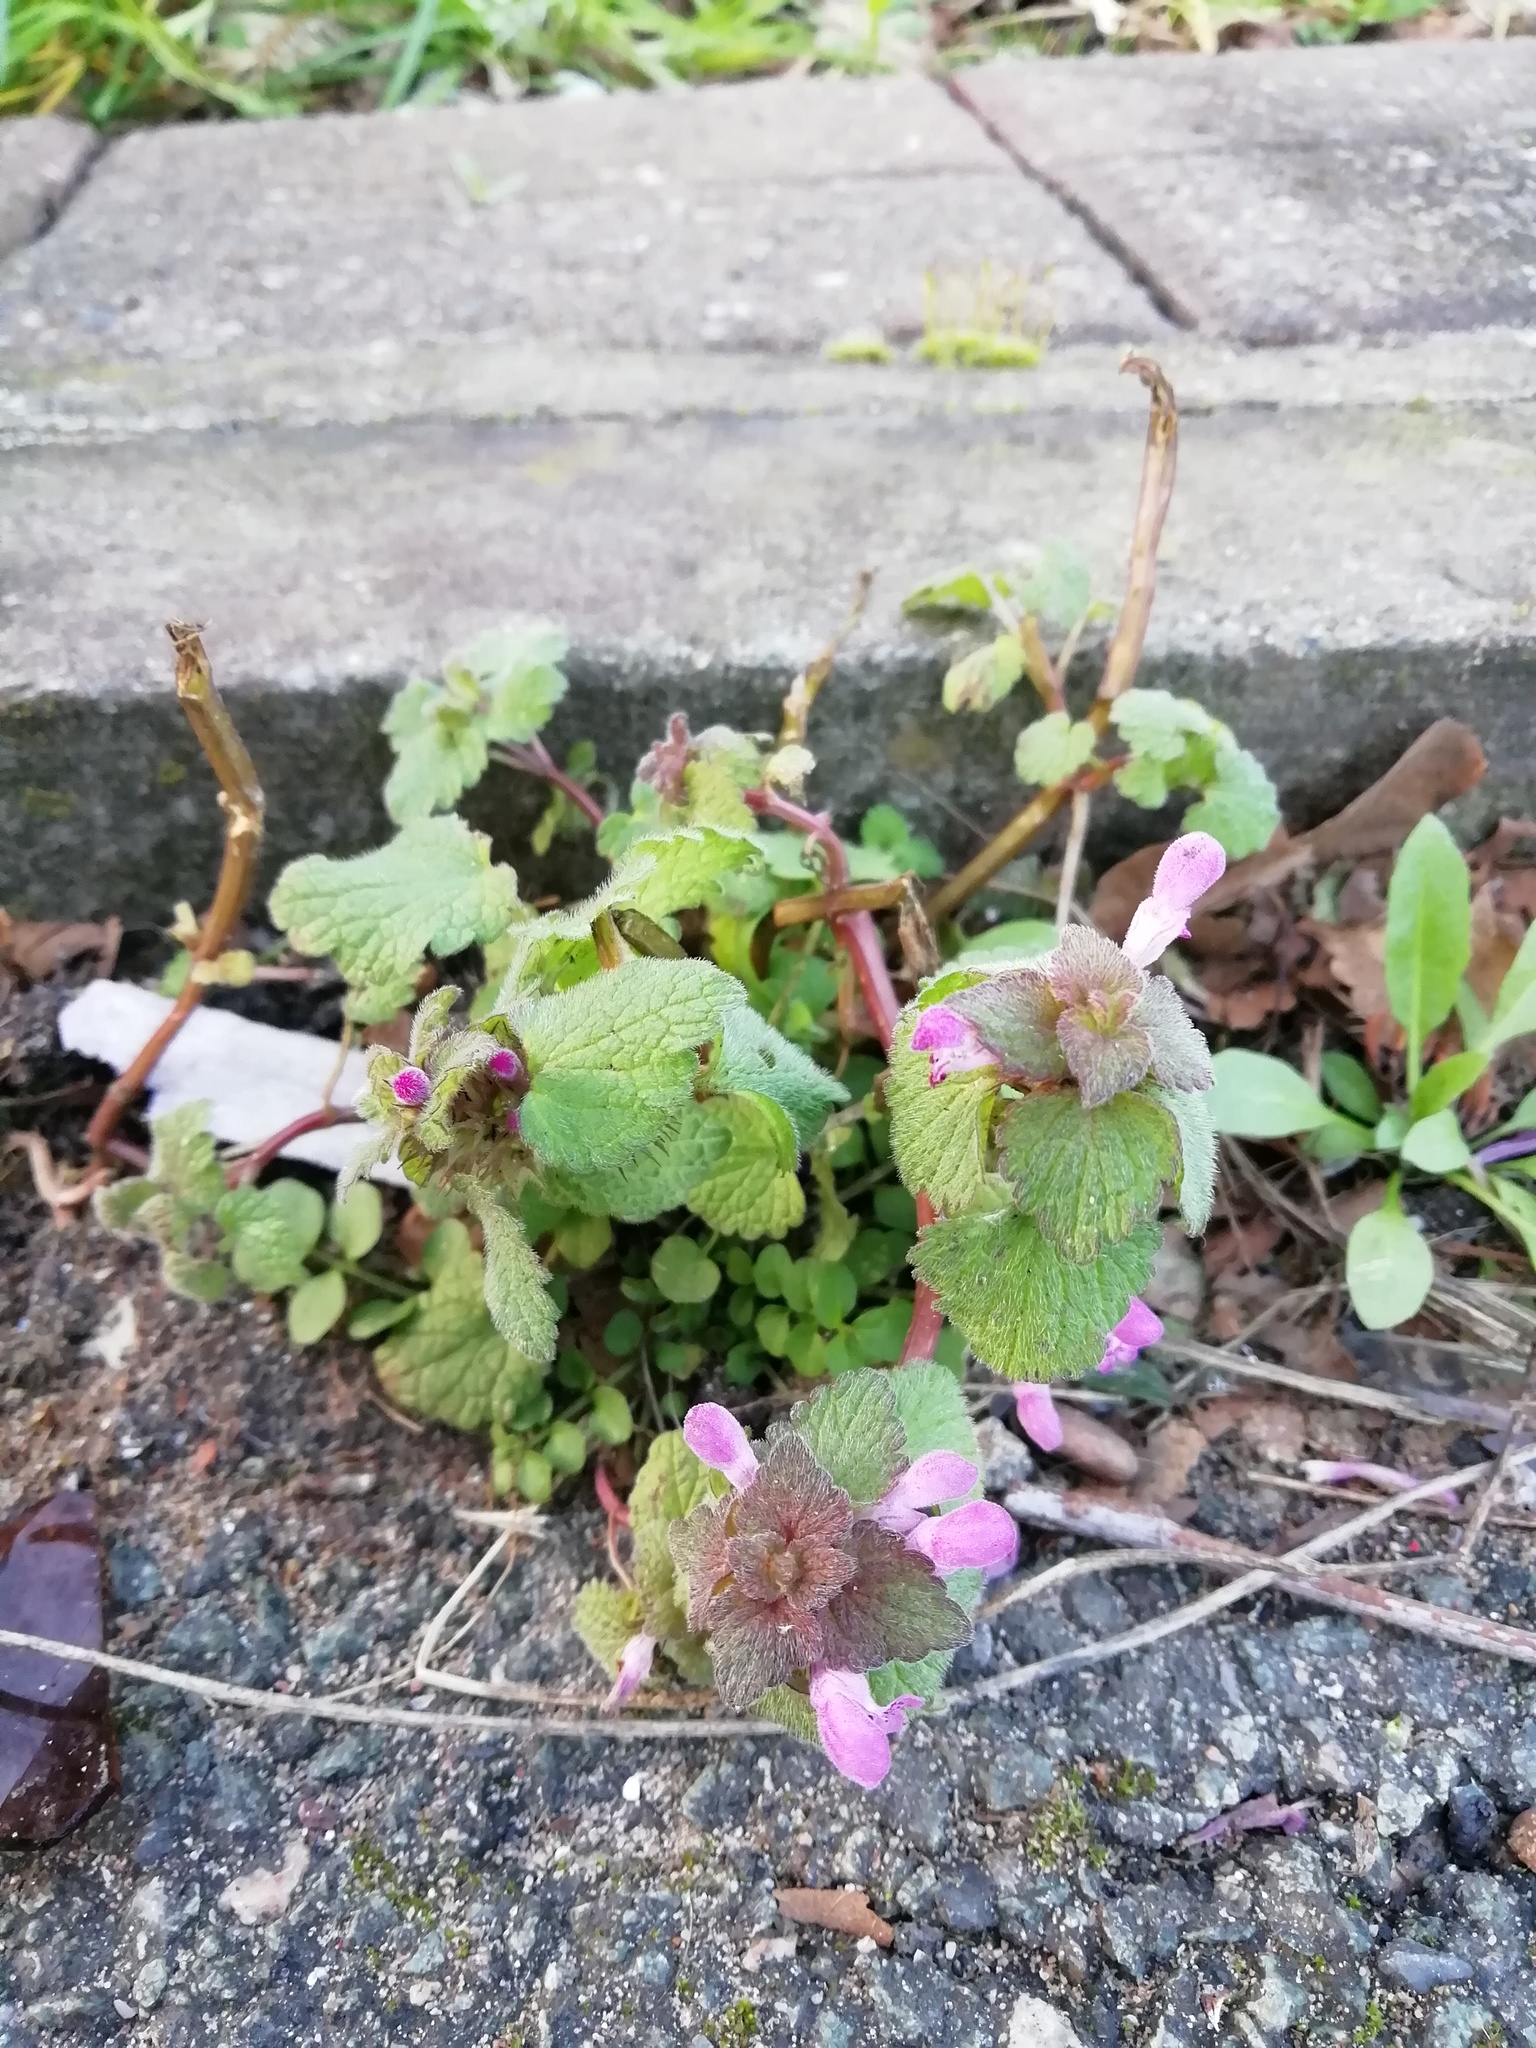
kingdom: Plantae
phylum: Tracheophyta
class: Magnoliopsida
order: Lamiales
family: Lamiaceae
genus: Lamium
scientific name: Lamium purpureum
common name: Red dead-nettle
